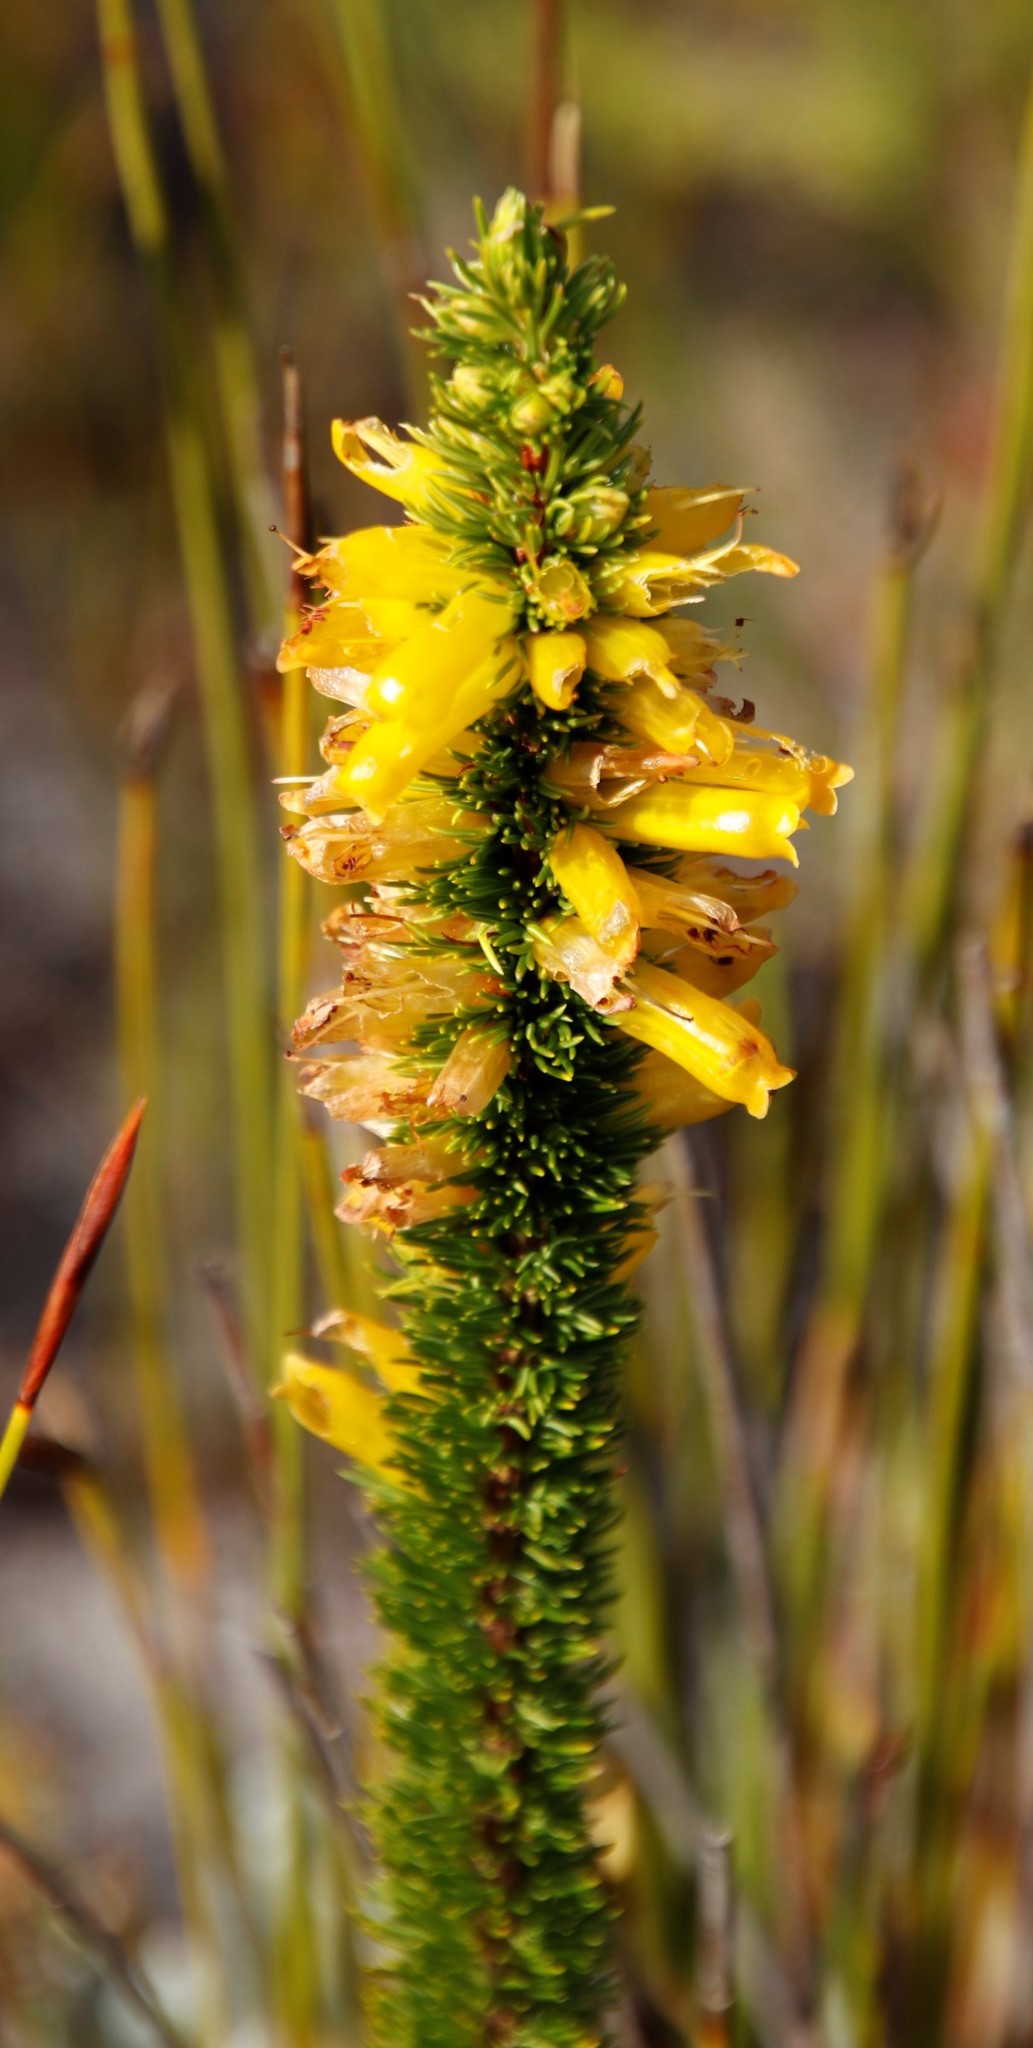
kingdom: Plantae
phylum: Tracheophyta
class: Magnoliopsida
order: Ericales
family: Ericaceae
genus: Erica
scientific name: Erica patersonia
